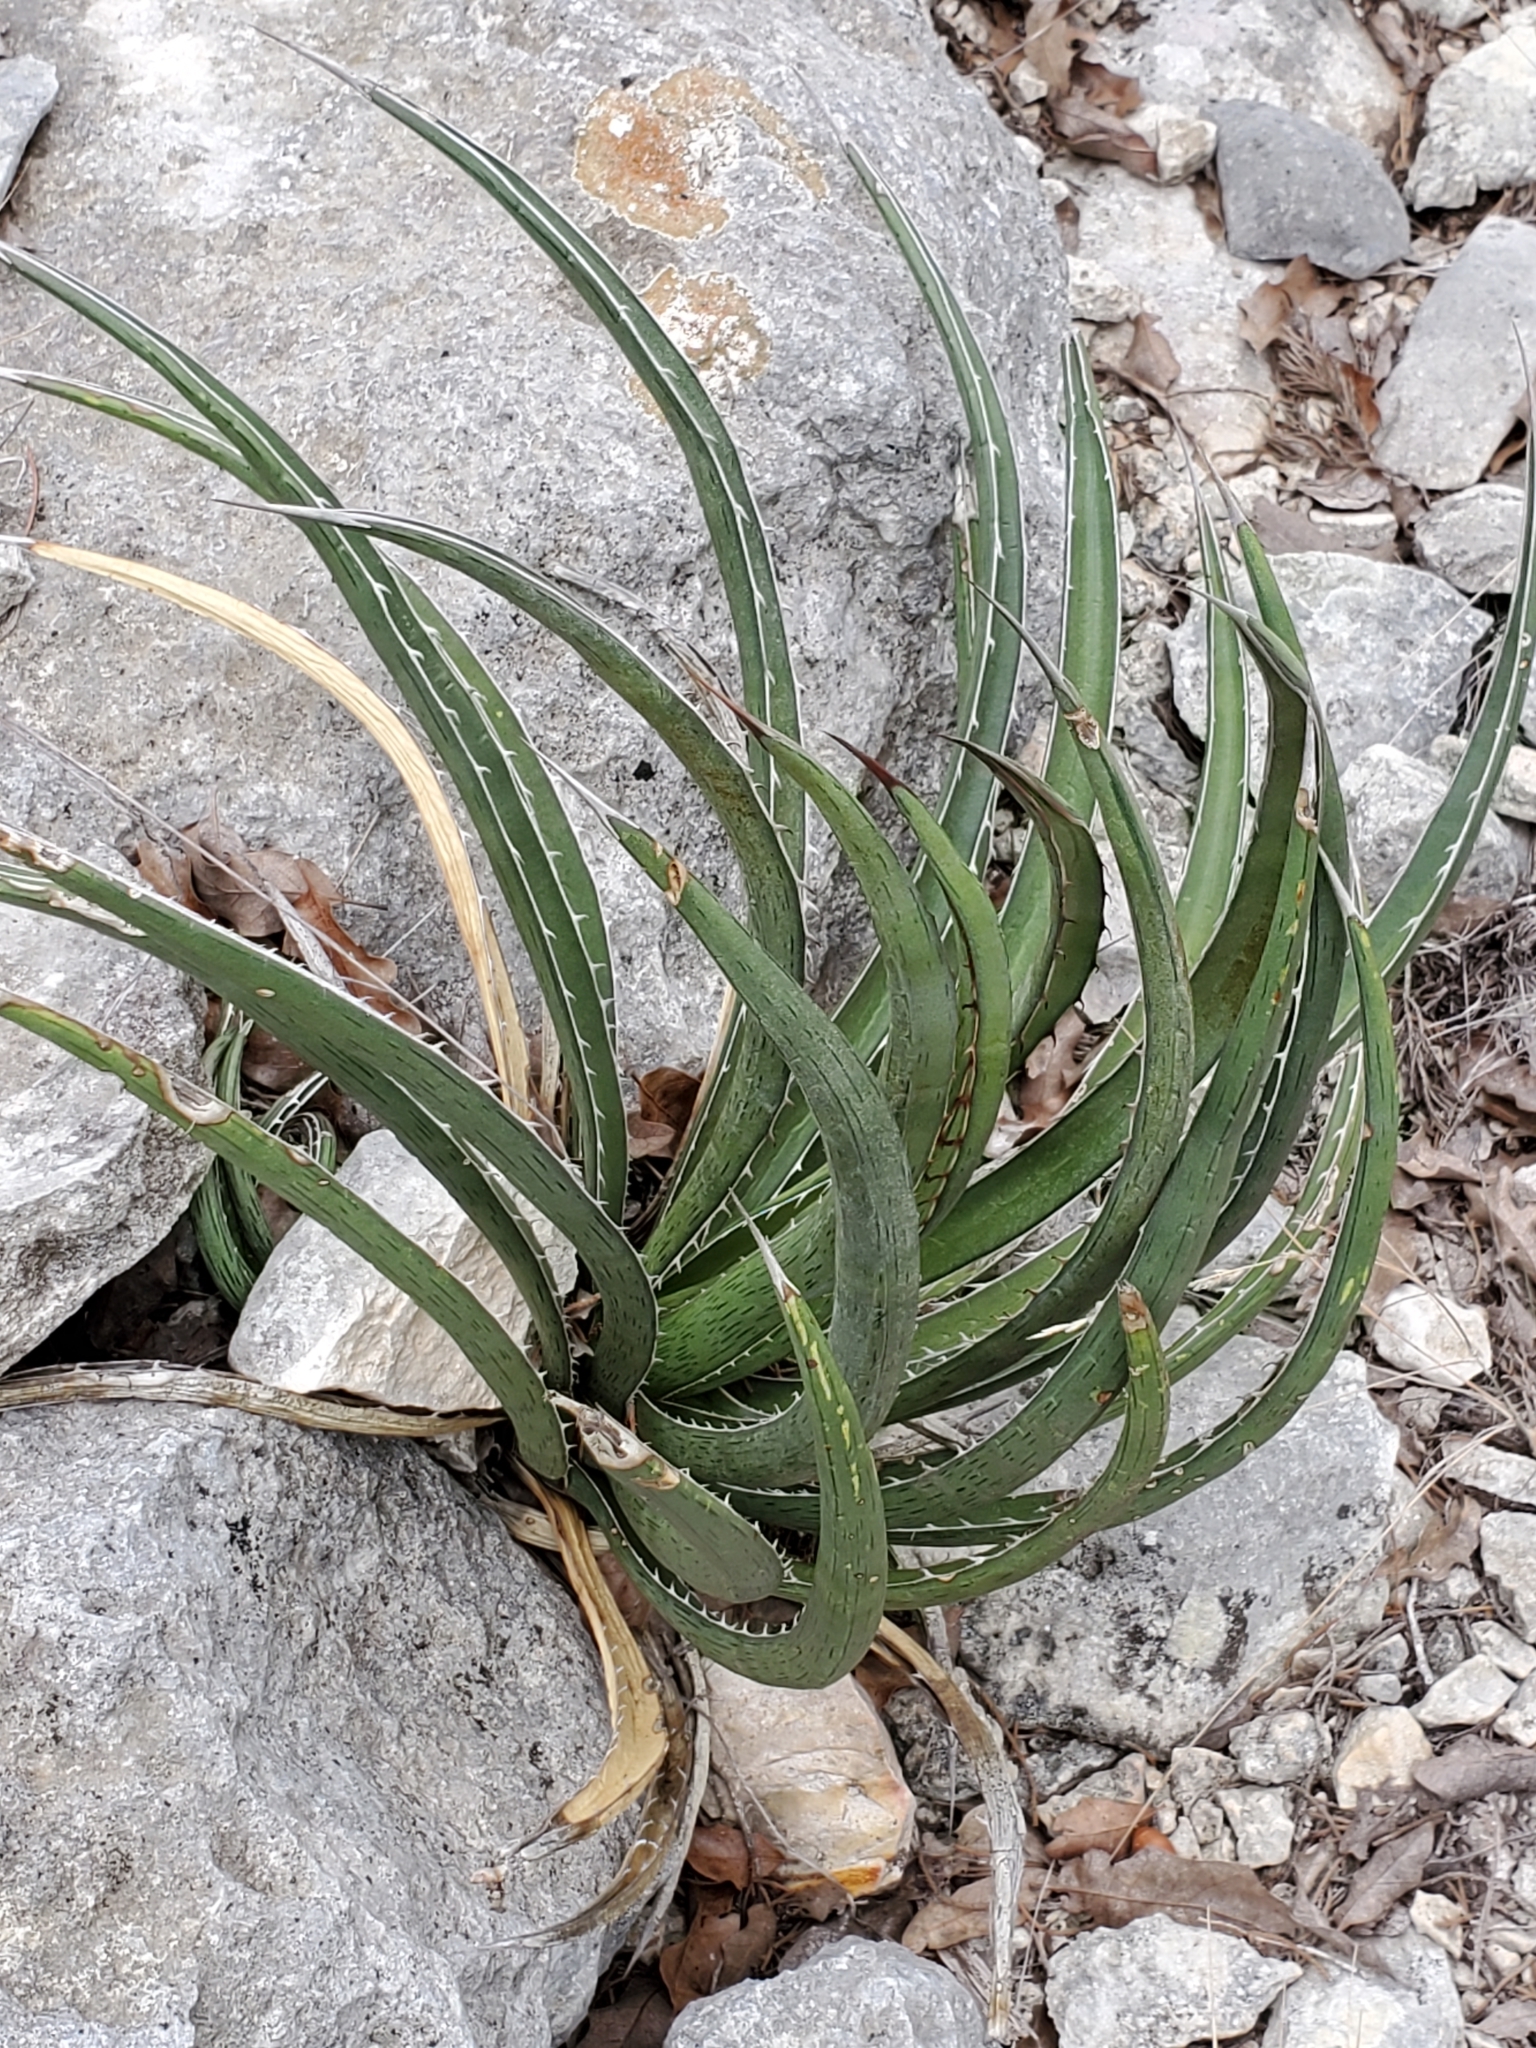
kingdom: Plantae
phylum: Tracheophyta
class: Liliopsida
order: Asparagales
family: Asparagaceae
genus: Agave
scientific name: Agave lechuguilla
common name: Lecheguilla agave
